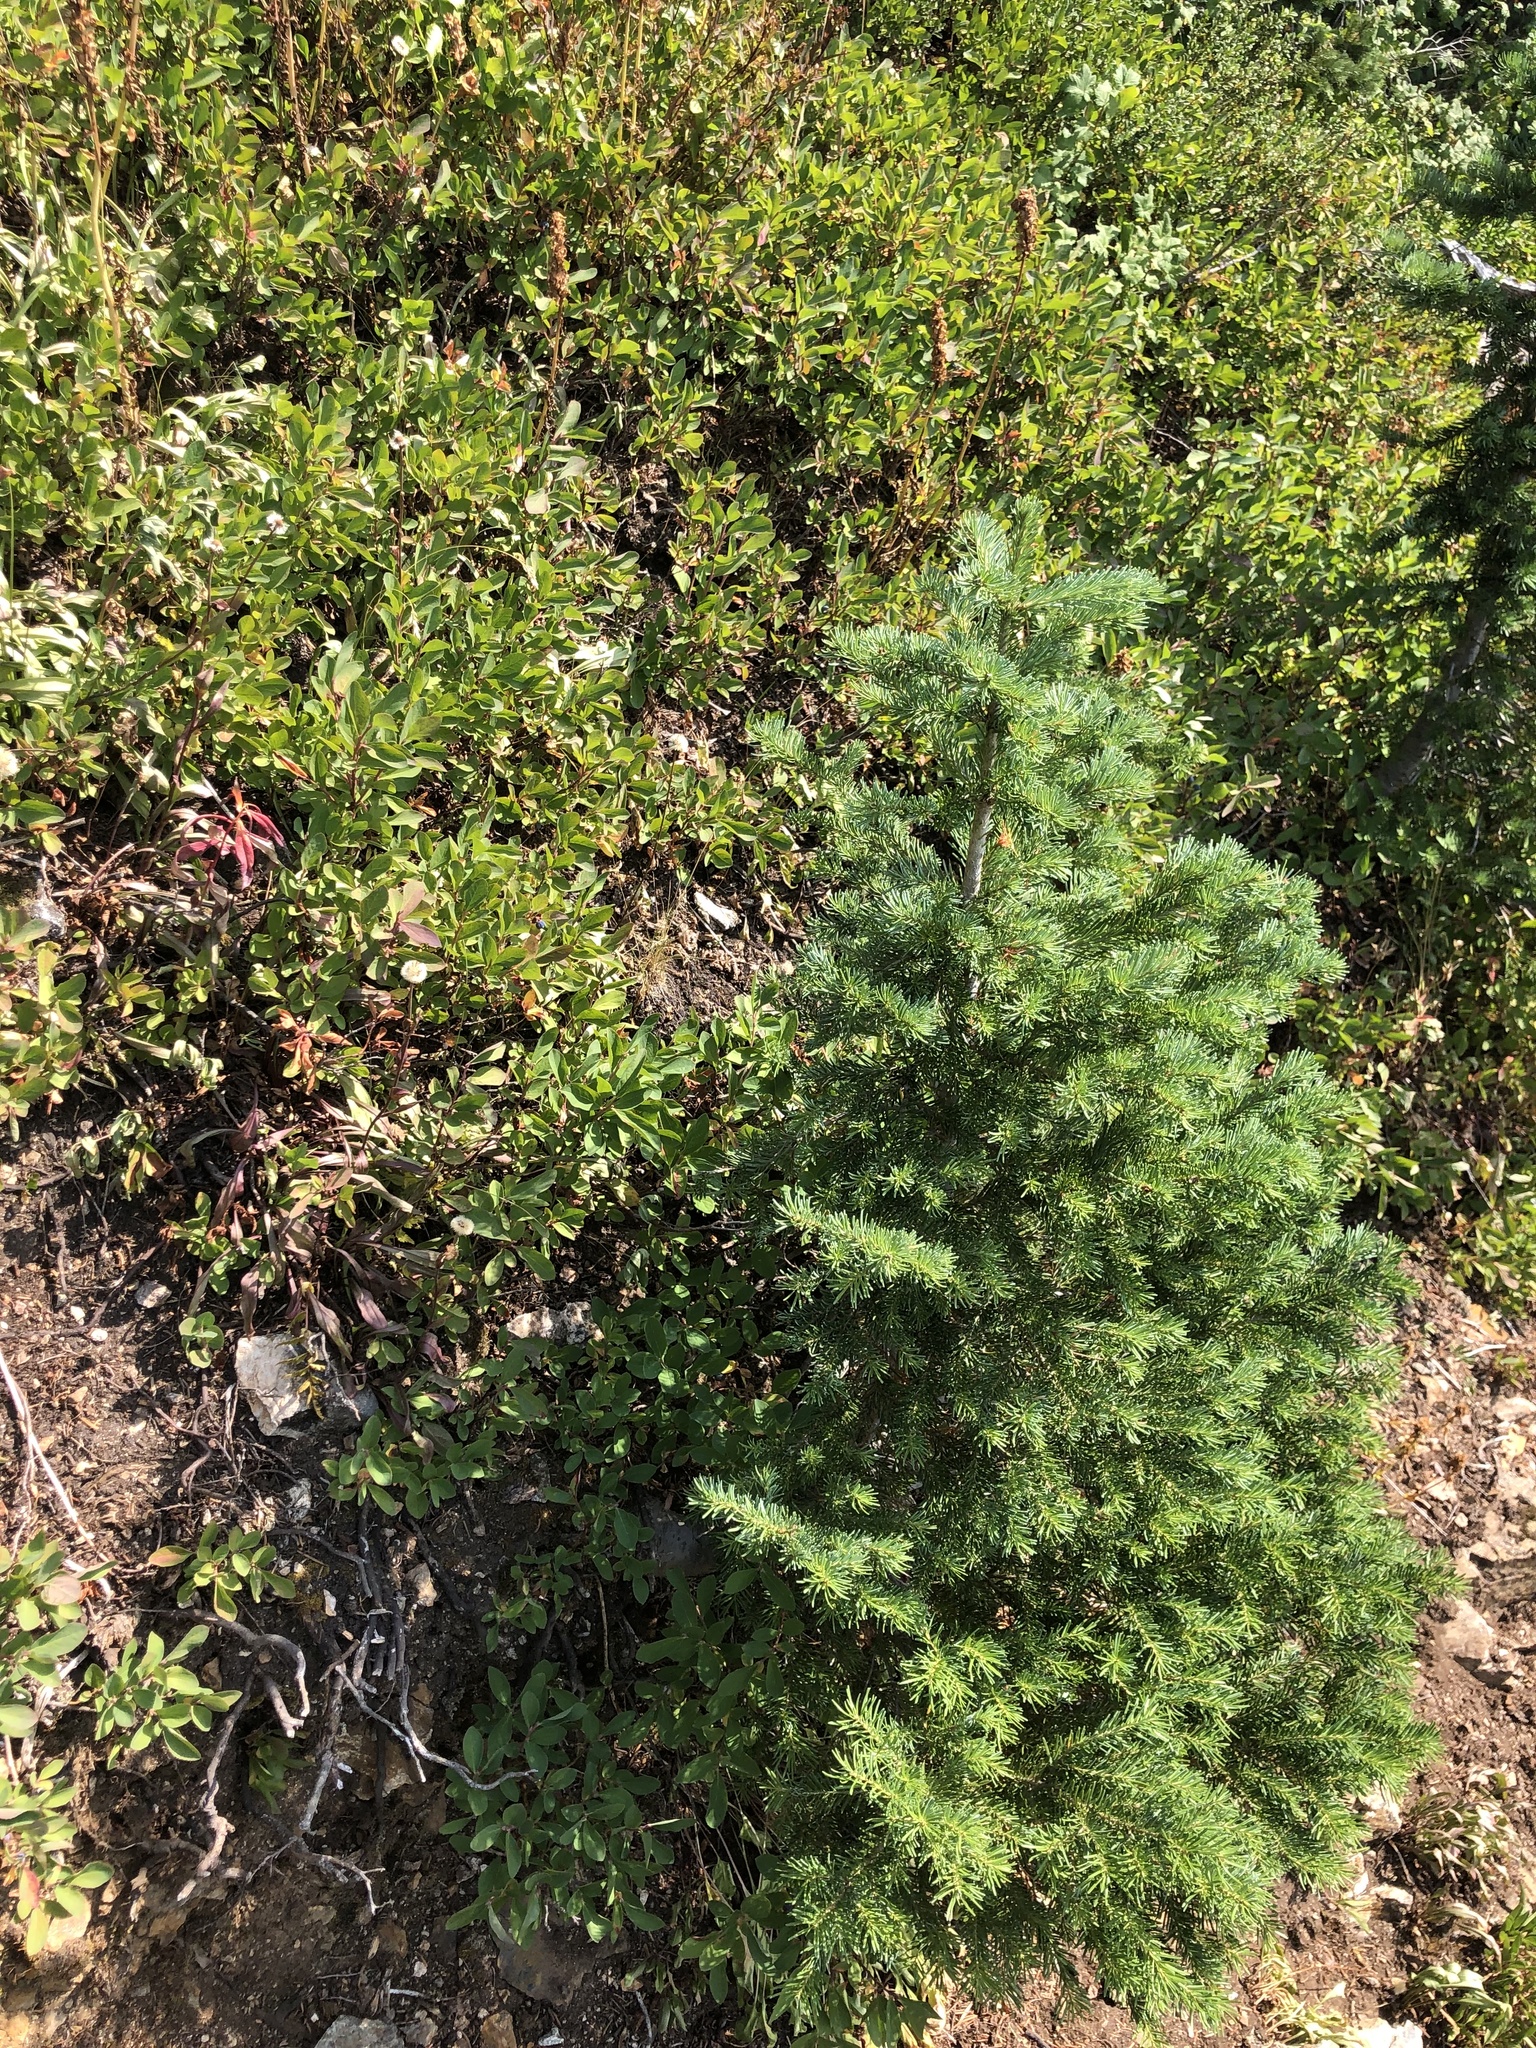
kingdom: Plantae
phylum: Tracheophyta
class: Pinopsida
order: Pinales
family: Pinaceae
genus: Abies
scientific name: Abies lasiocarpa
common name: Subalpine fir
